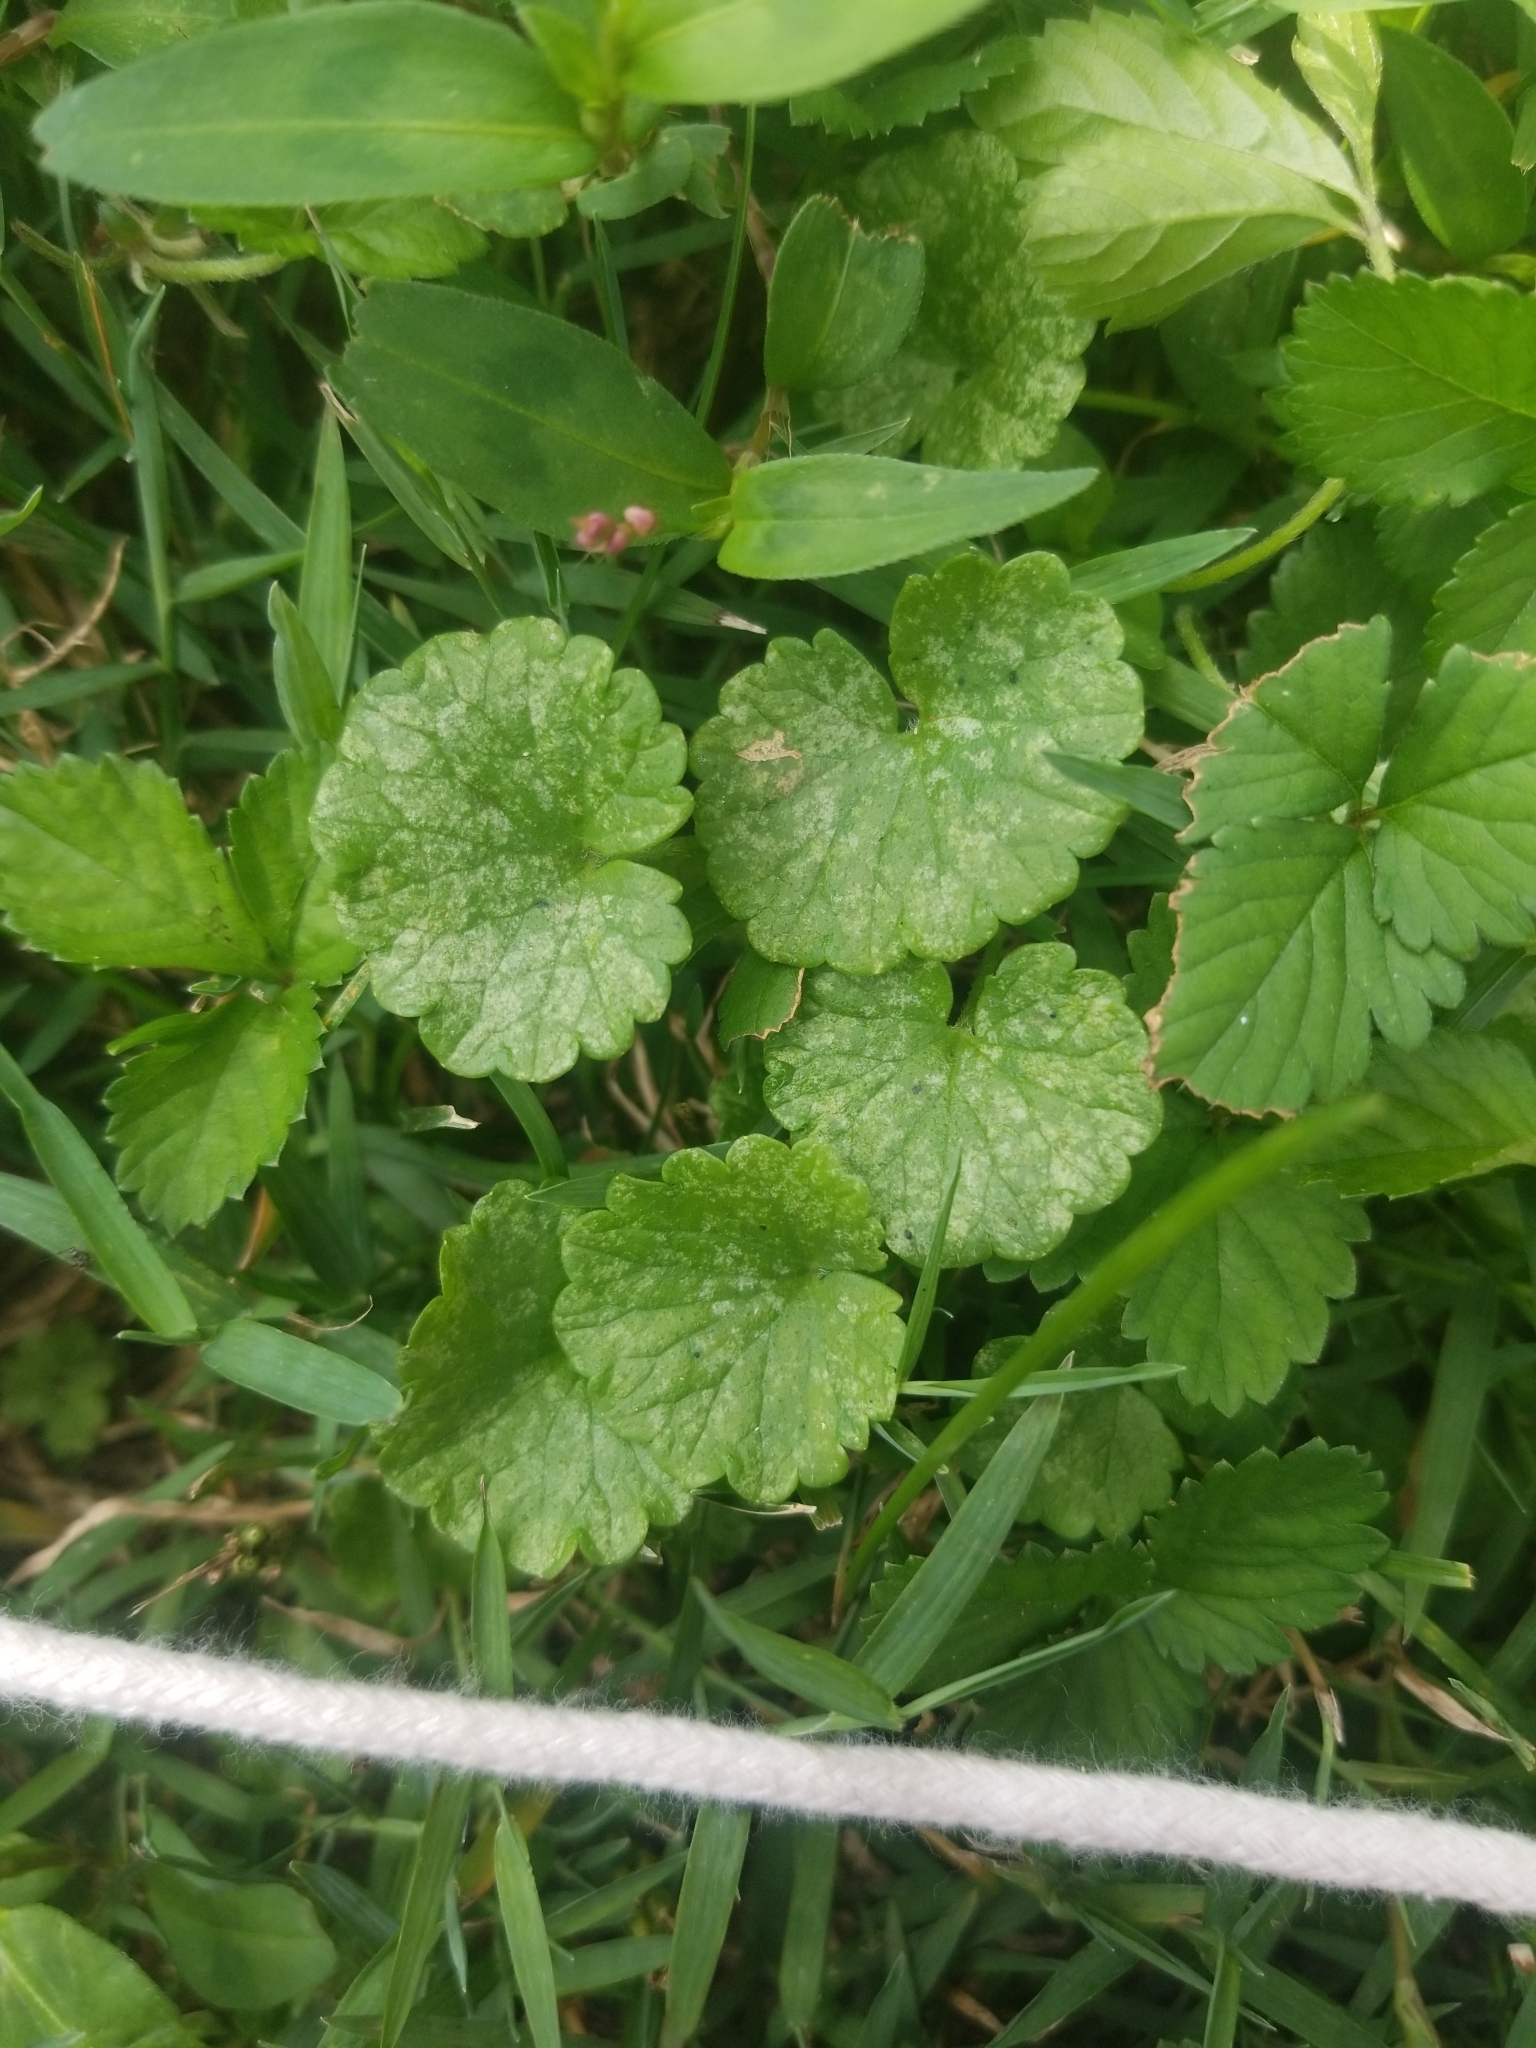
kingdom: Plantae
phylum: Tracheophyta
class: Magnoliopsida
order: Lamiales
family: Lamiaceae
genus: Glechoma
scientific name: Glechoma hederacea
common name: Ground ivy
